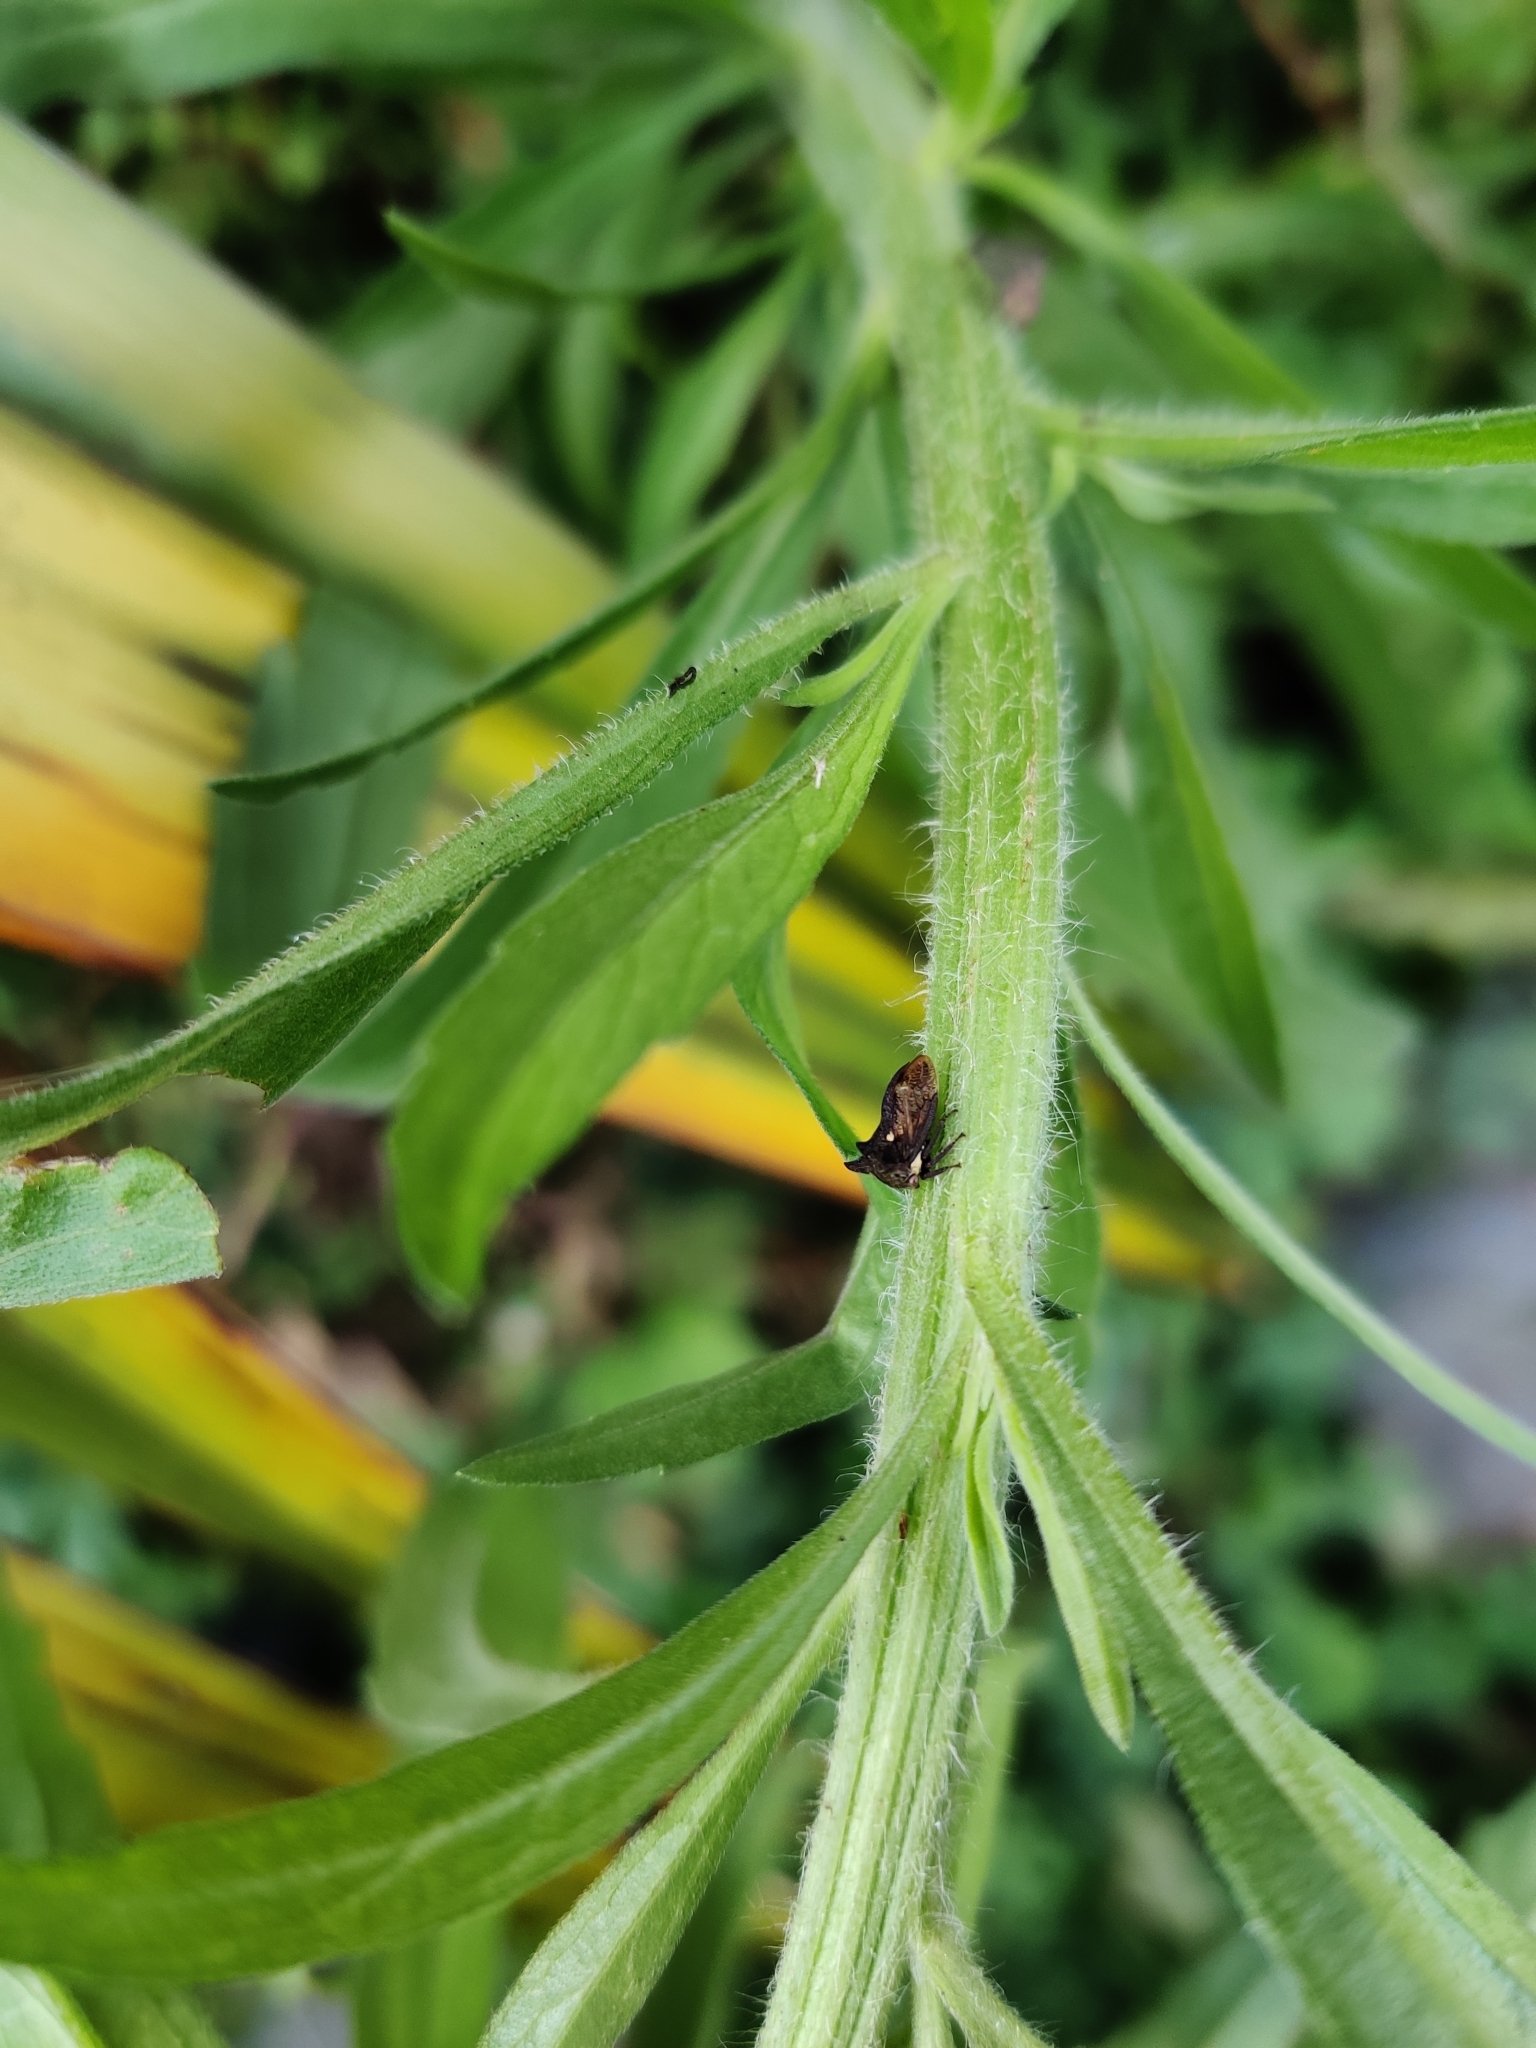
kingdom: Animalia
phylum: Arthropoda
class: Insecta
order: Hemiptera
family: Membracidae
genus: Acanthuchus
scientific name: Acanthuchus trispinifer
